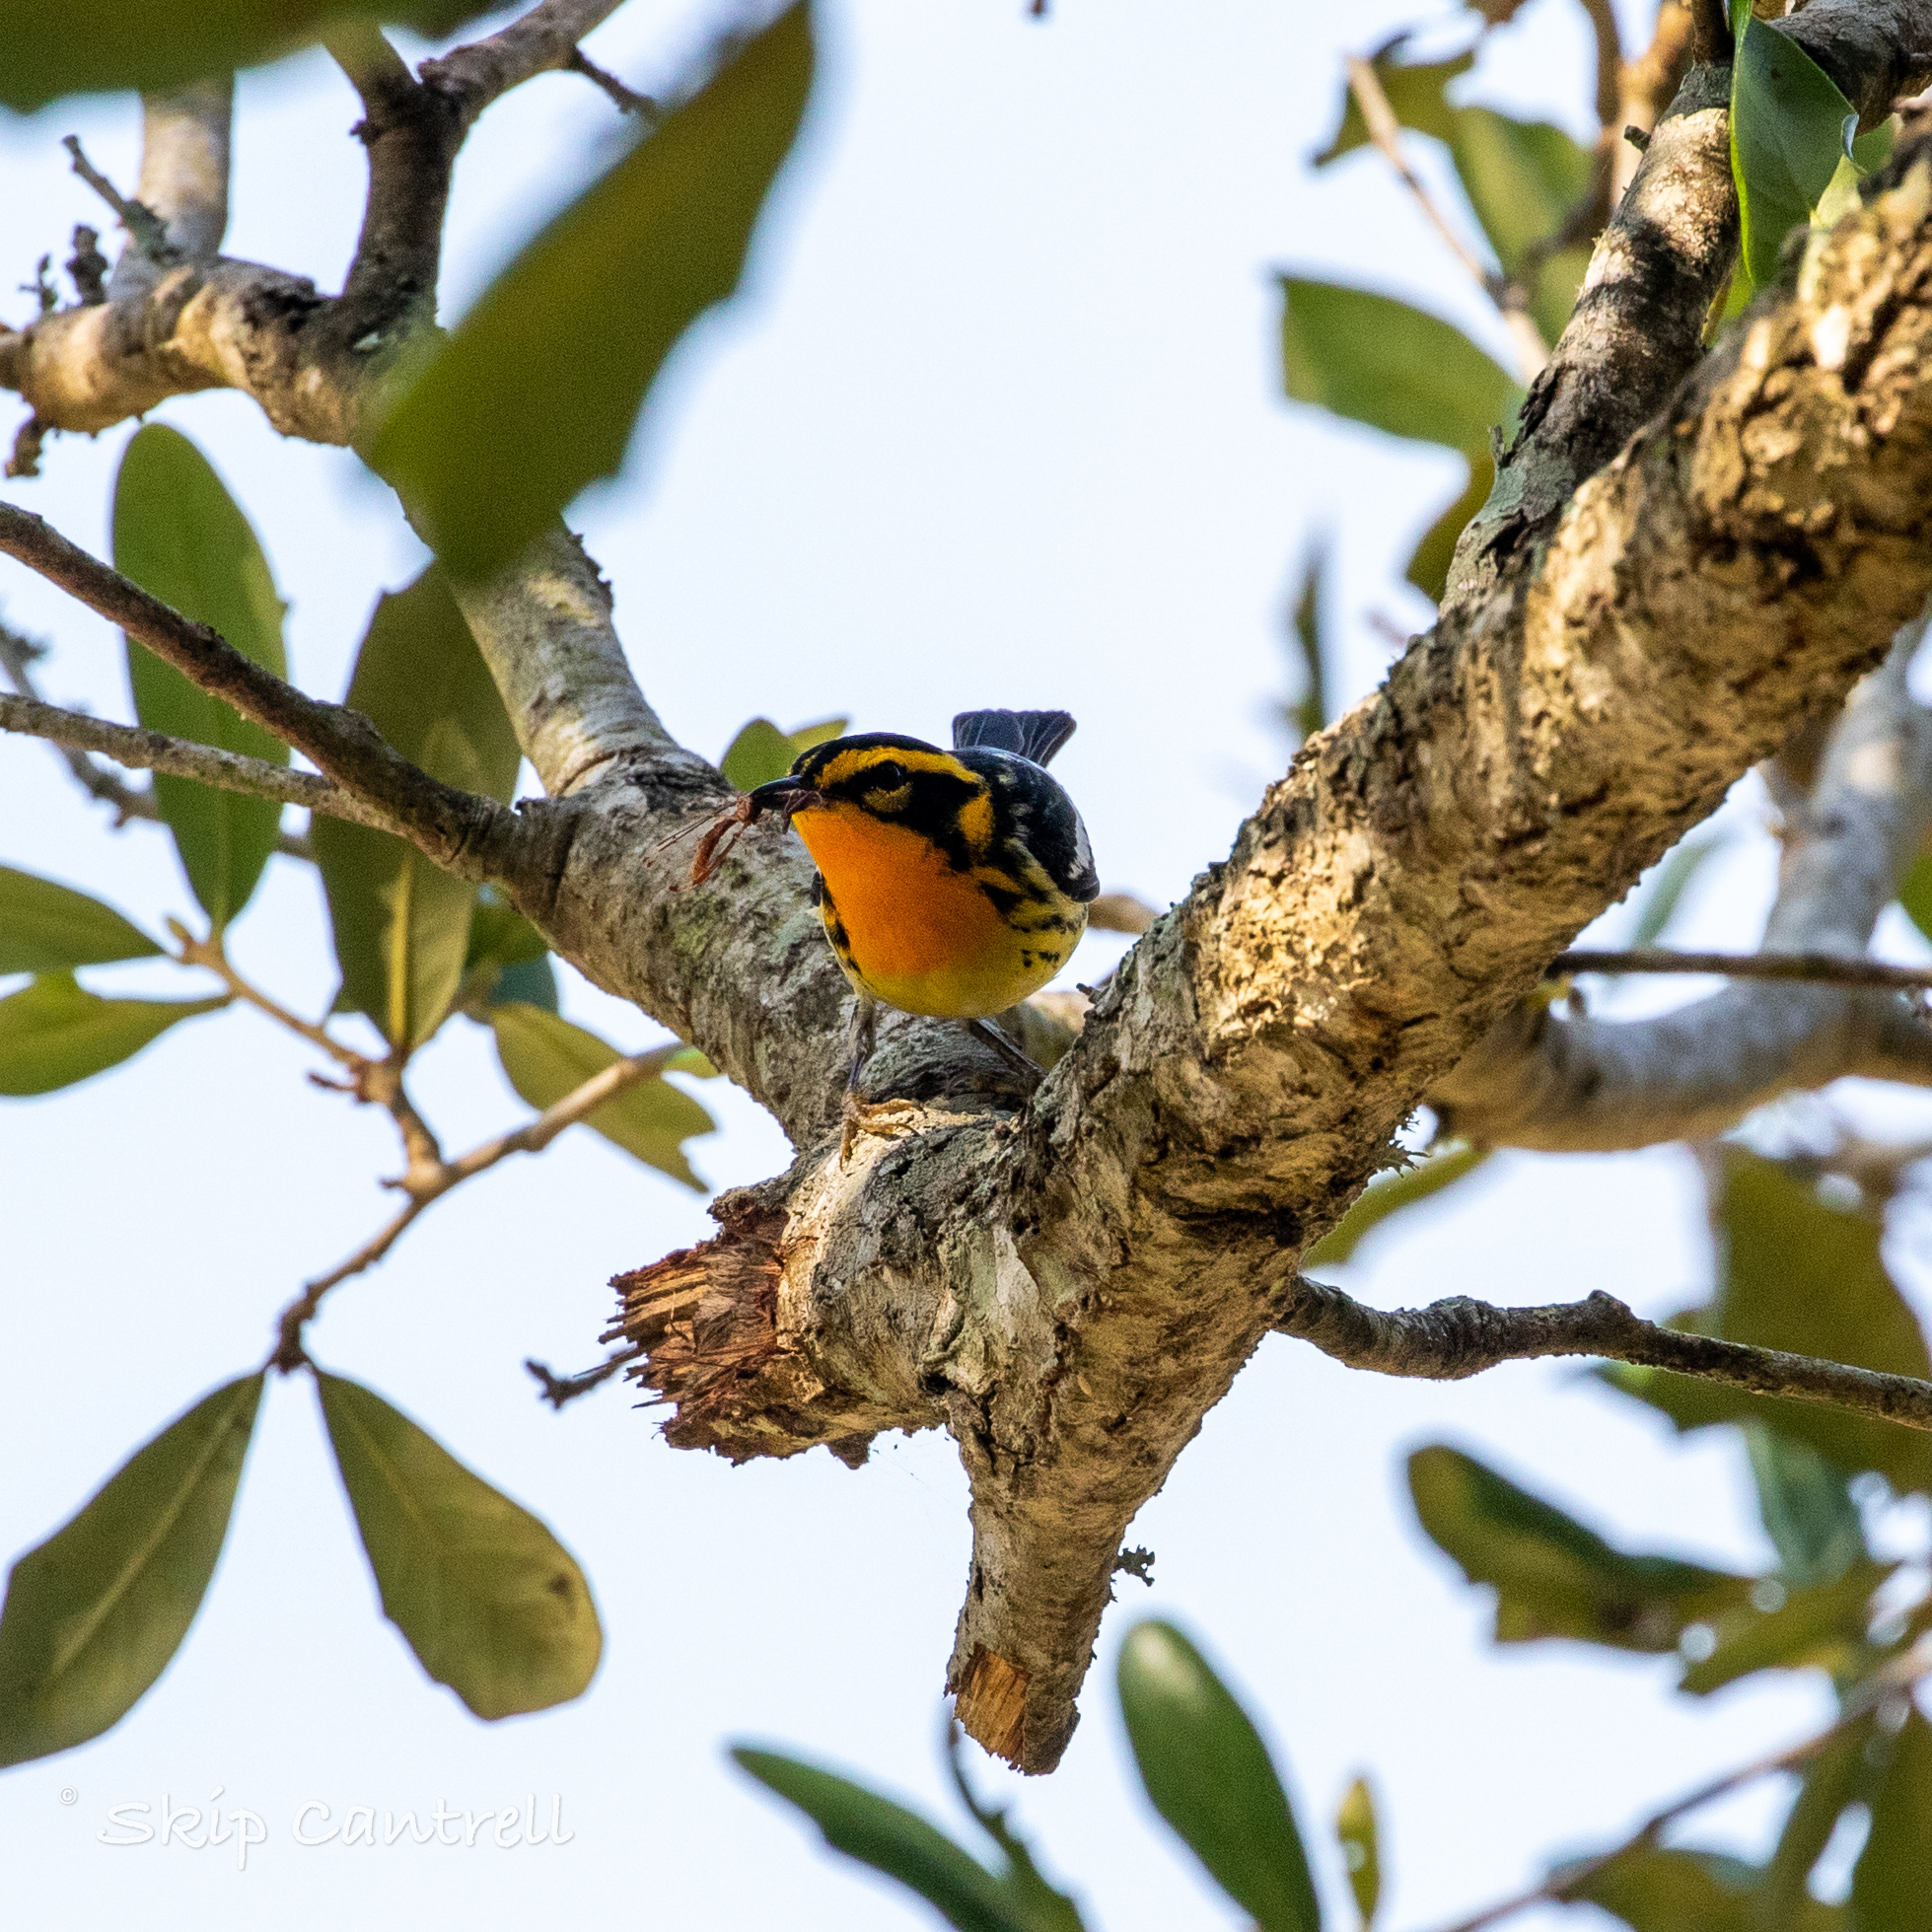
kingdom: Animalia
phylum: Chordata
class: Aves
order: Passeriformes
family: Parulidae
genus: Setophaga
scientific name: Setophaga fusca
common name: Blackburnian warbler
